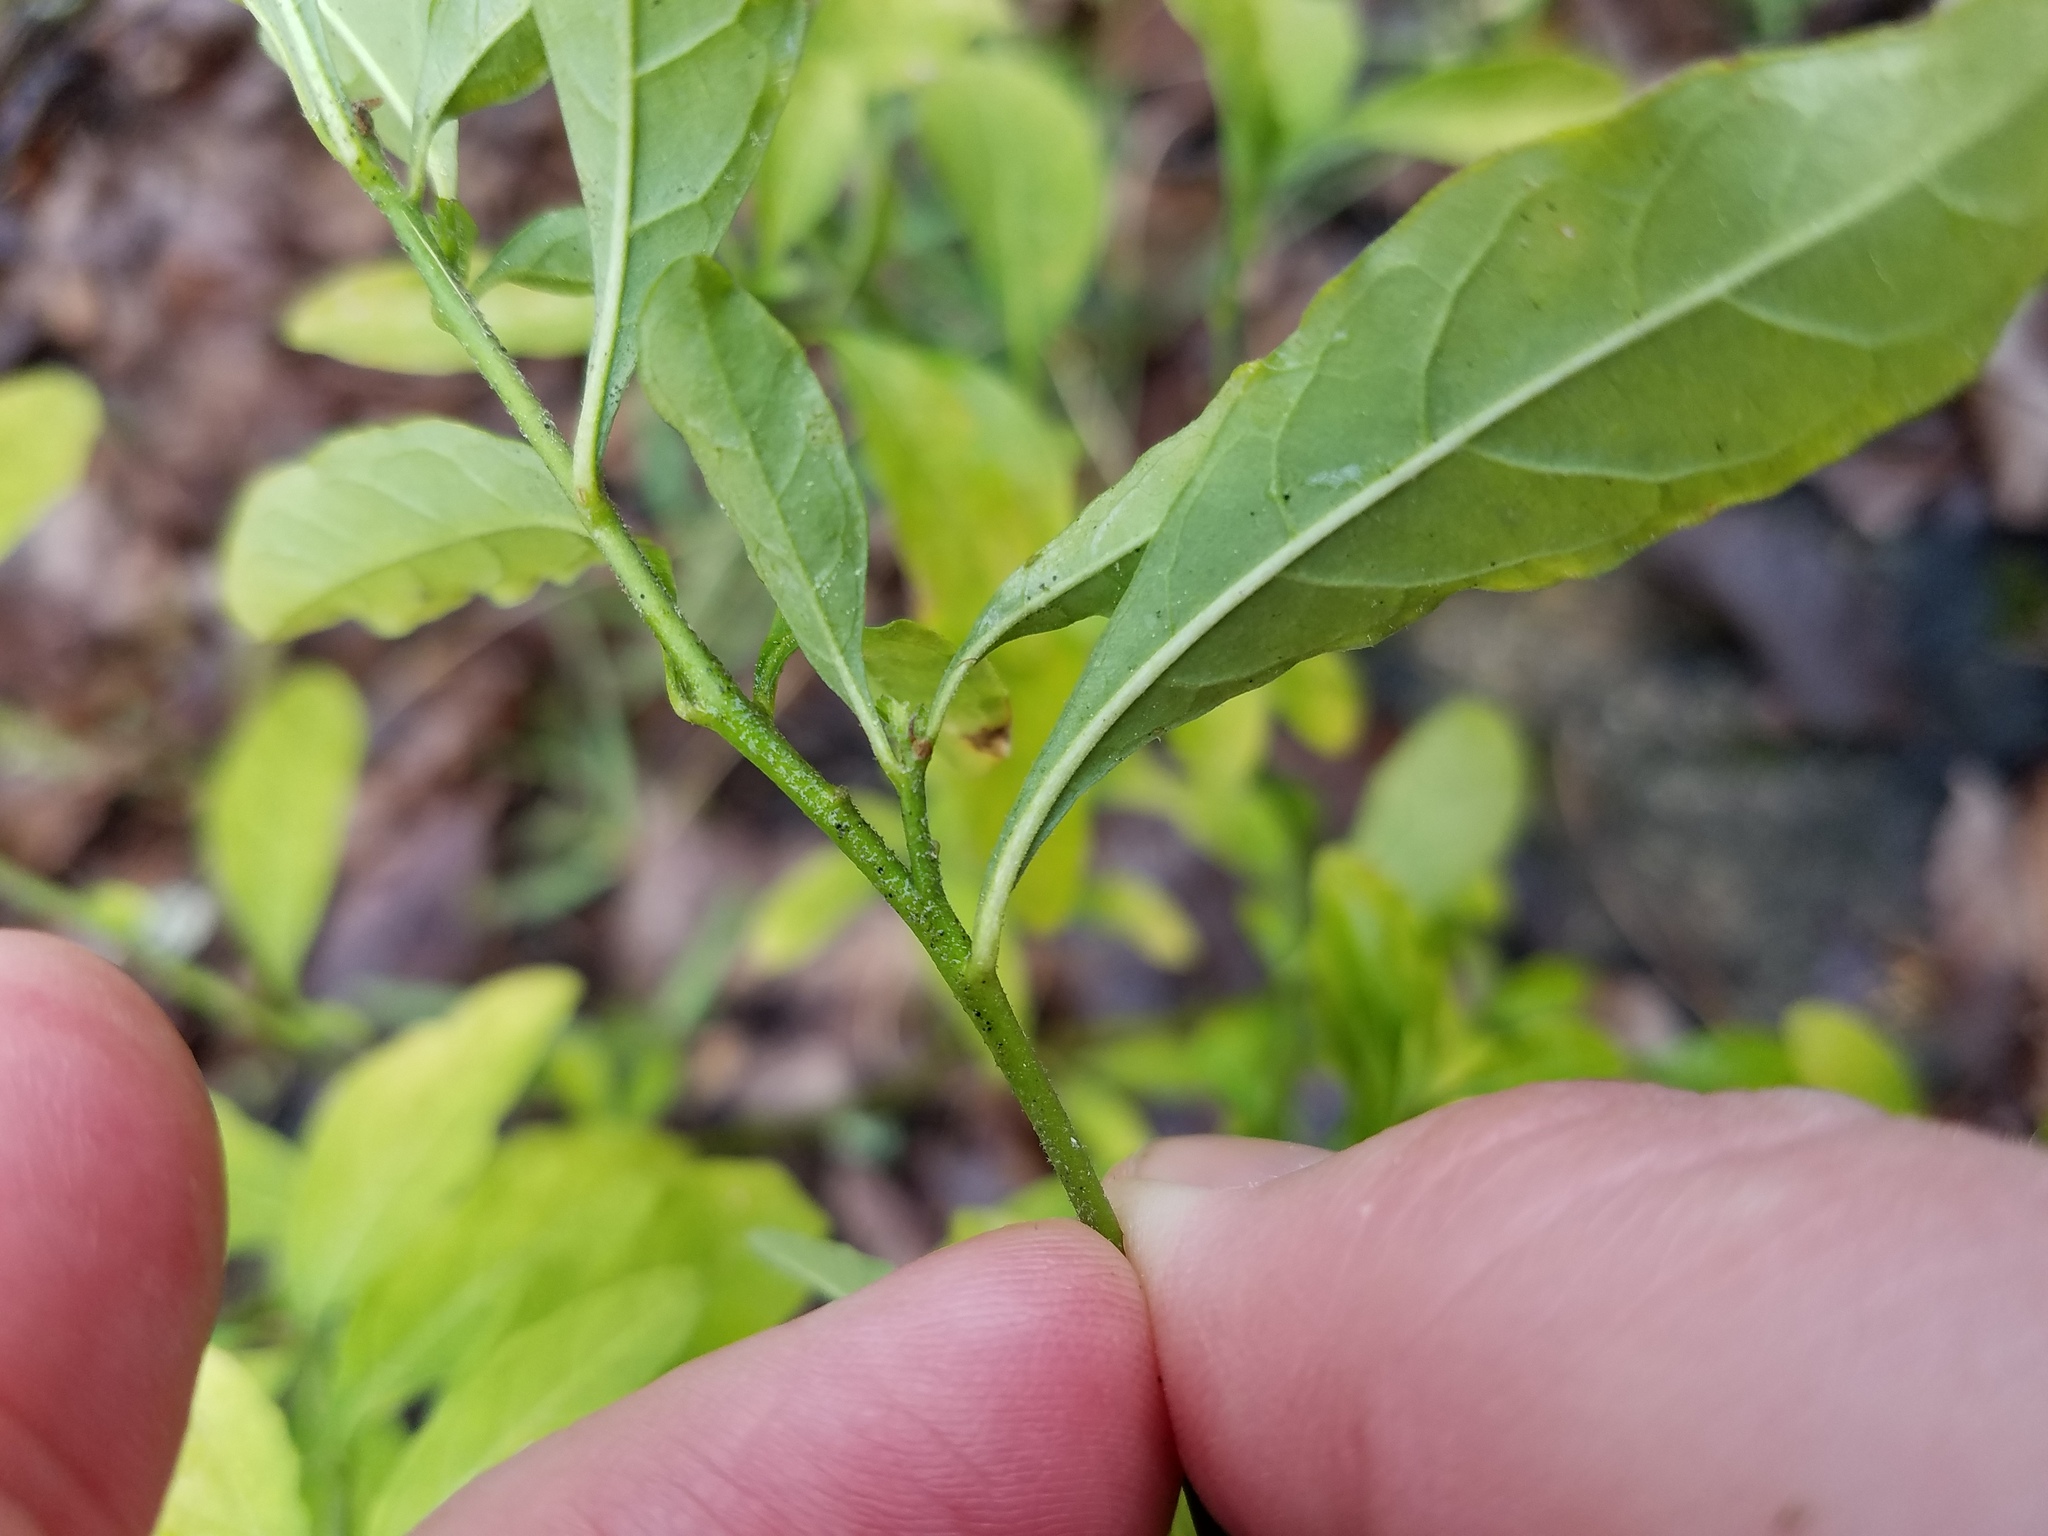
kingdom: Plantae
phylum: Tracheophyta
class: Magnoliopsida
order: Solanales
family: Solanaceae
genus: Solanum
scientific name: Solanum pseudocapsicum
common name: Jerusalem cherry
